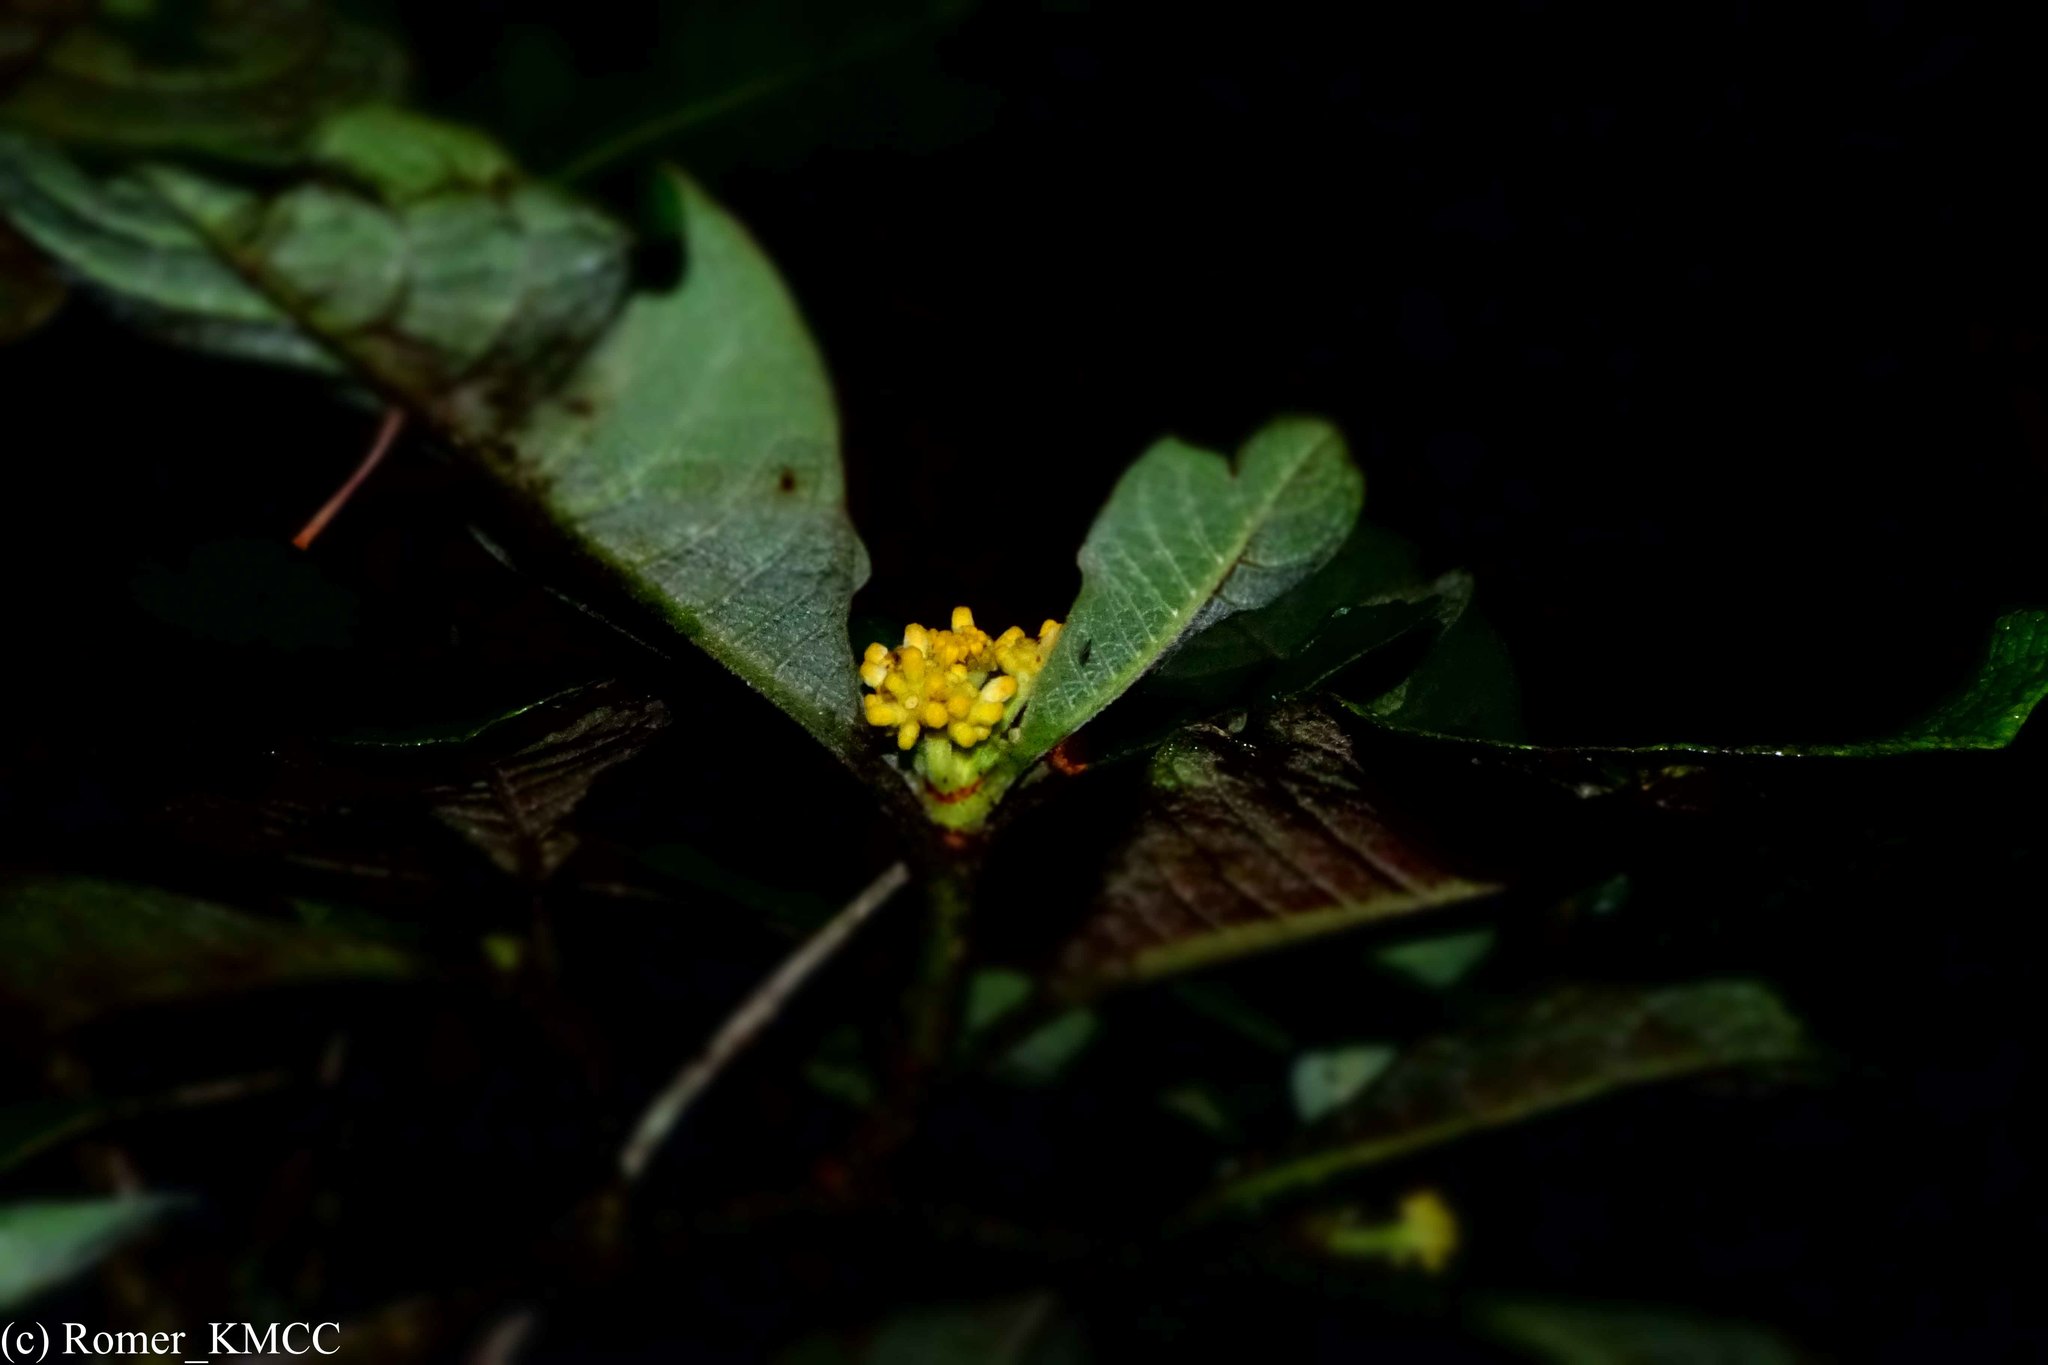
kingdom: Plantae
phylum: Tracheophyta
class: Magnoliopsida
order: Gentianales
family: Rubiaceae
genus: Psychotria
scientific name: Psychotria macrochlamys
